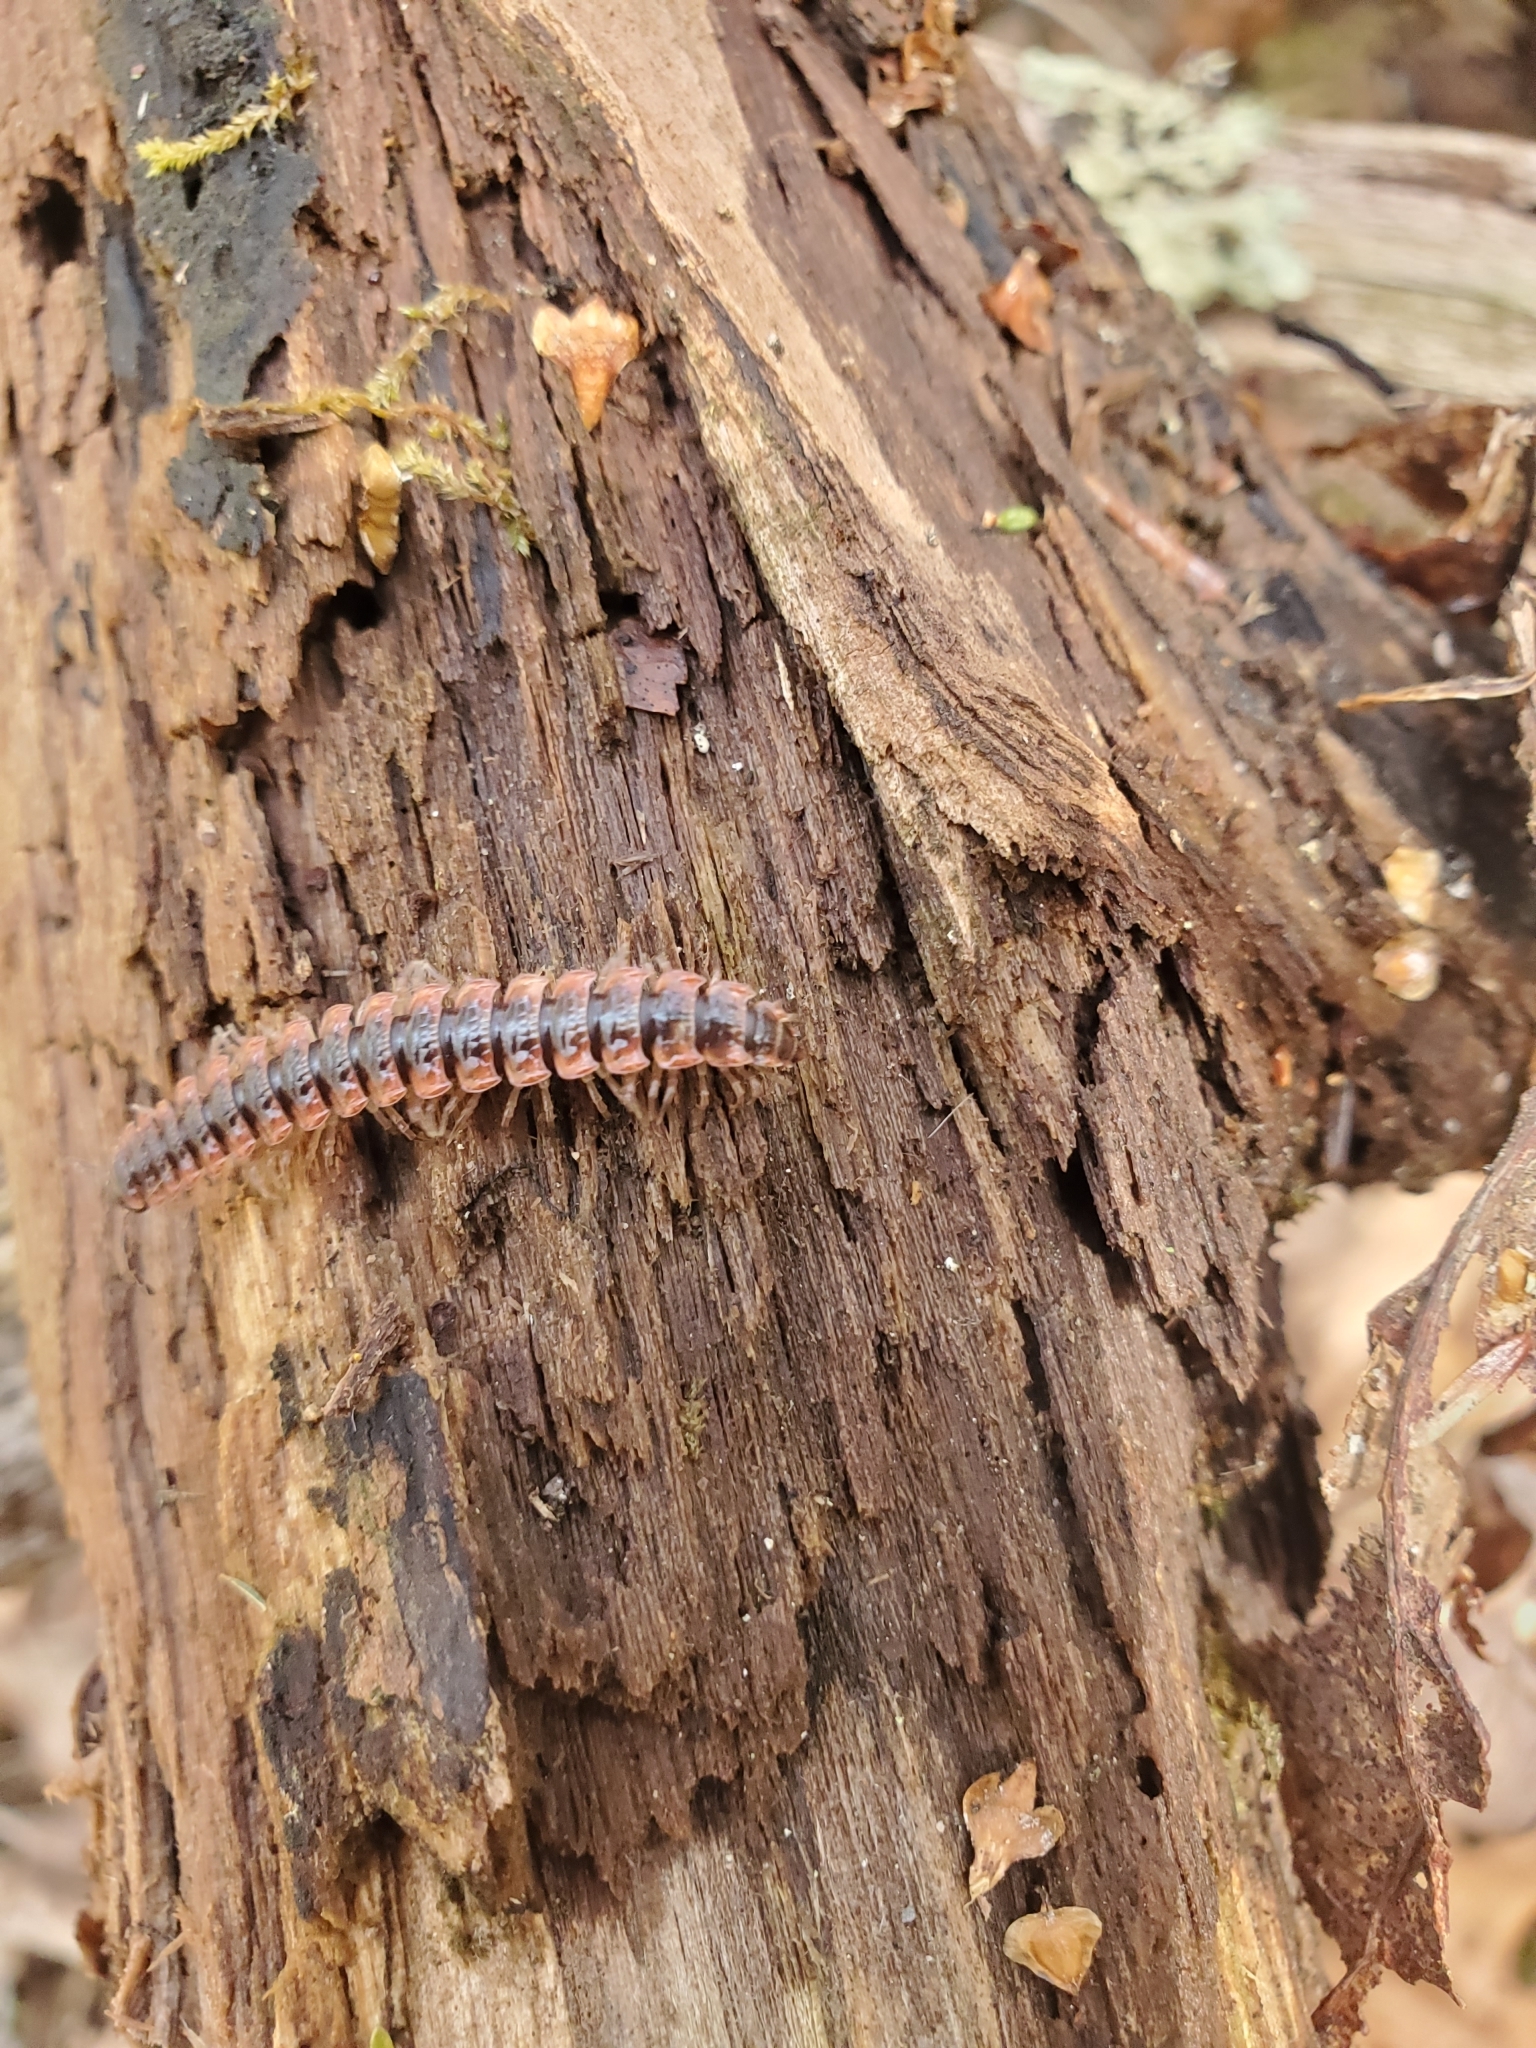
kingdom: Animalia
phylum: Arthropoda
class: Diplopoda
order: Polydesmida
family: Polydesmidae
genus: Pseudopolydesmus
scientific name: Pseudopolydesmus canadensis
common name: Canadian flat-back millipede
